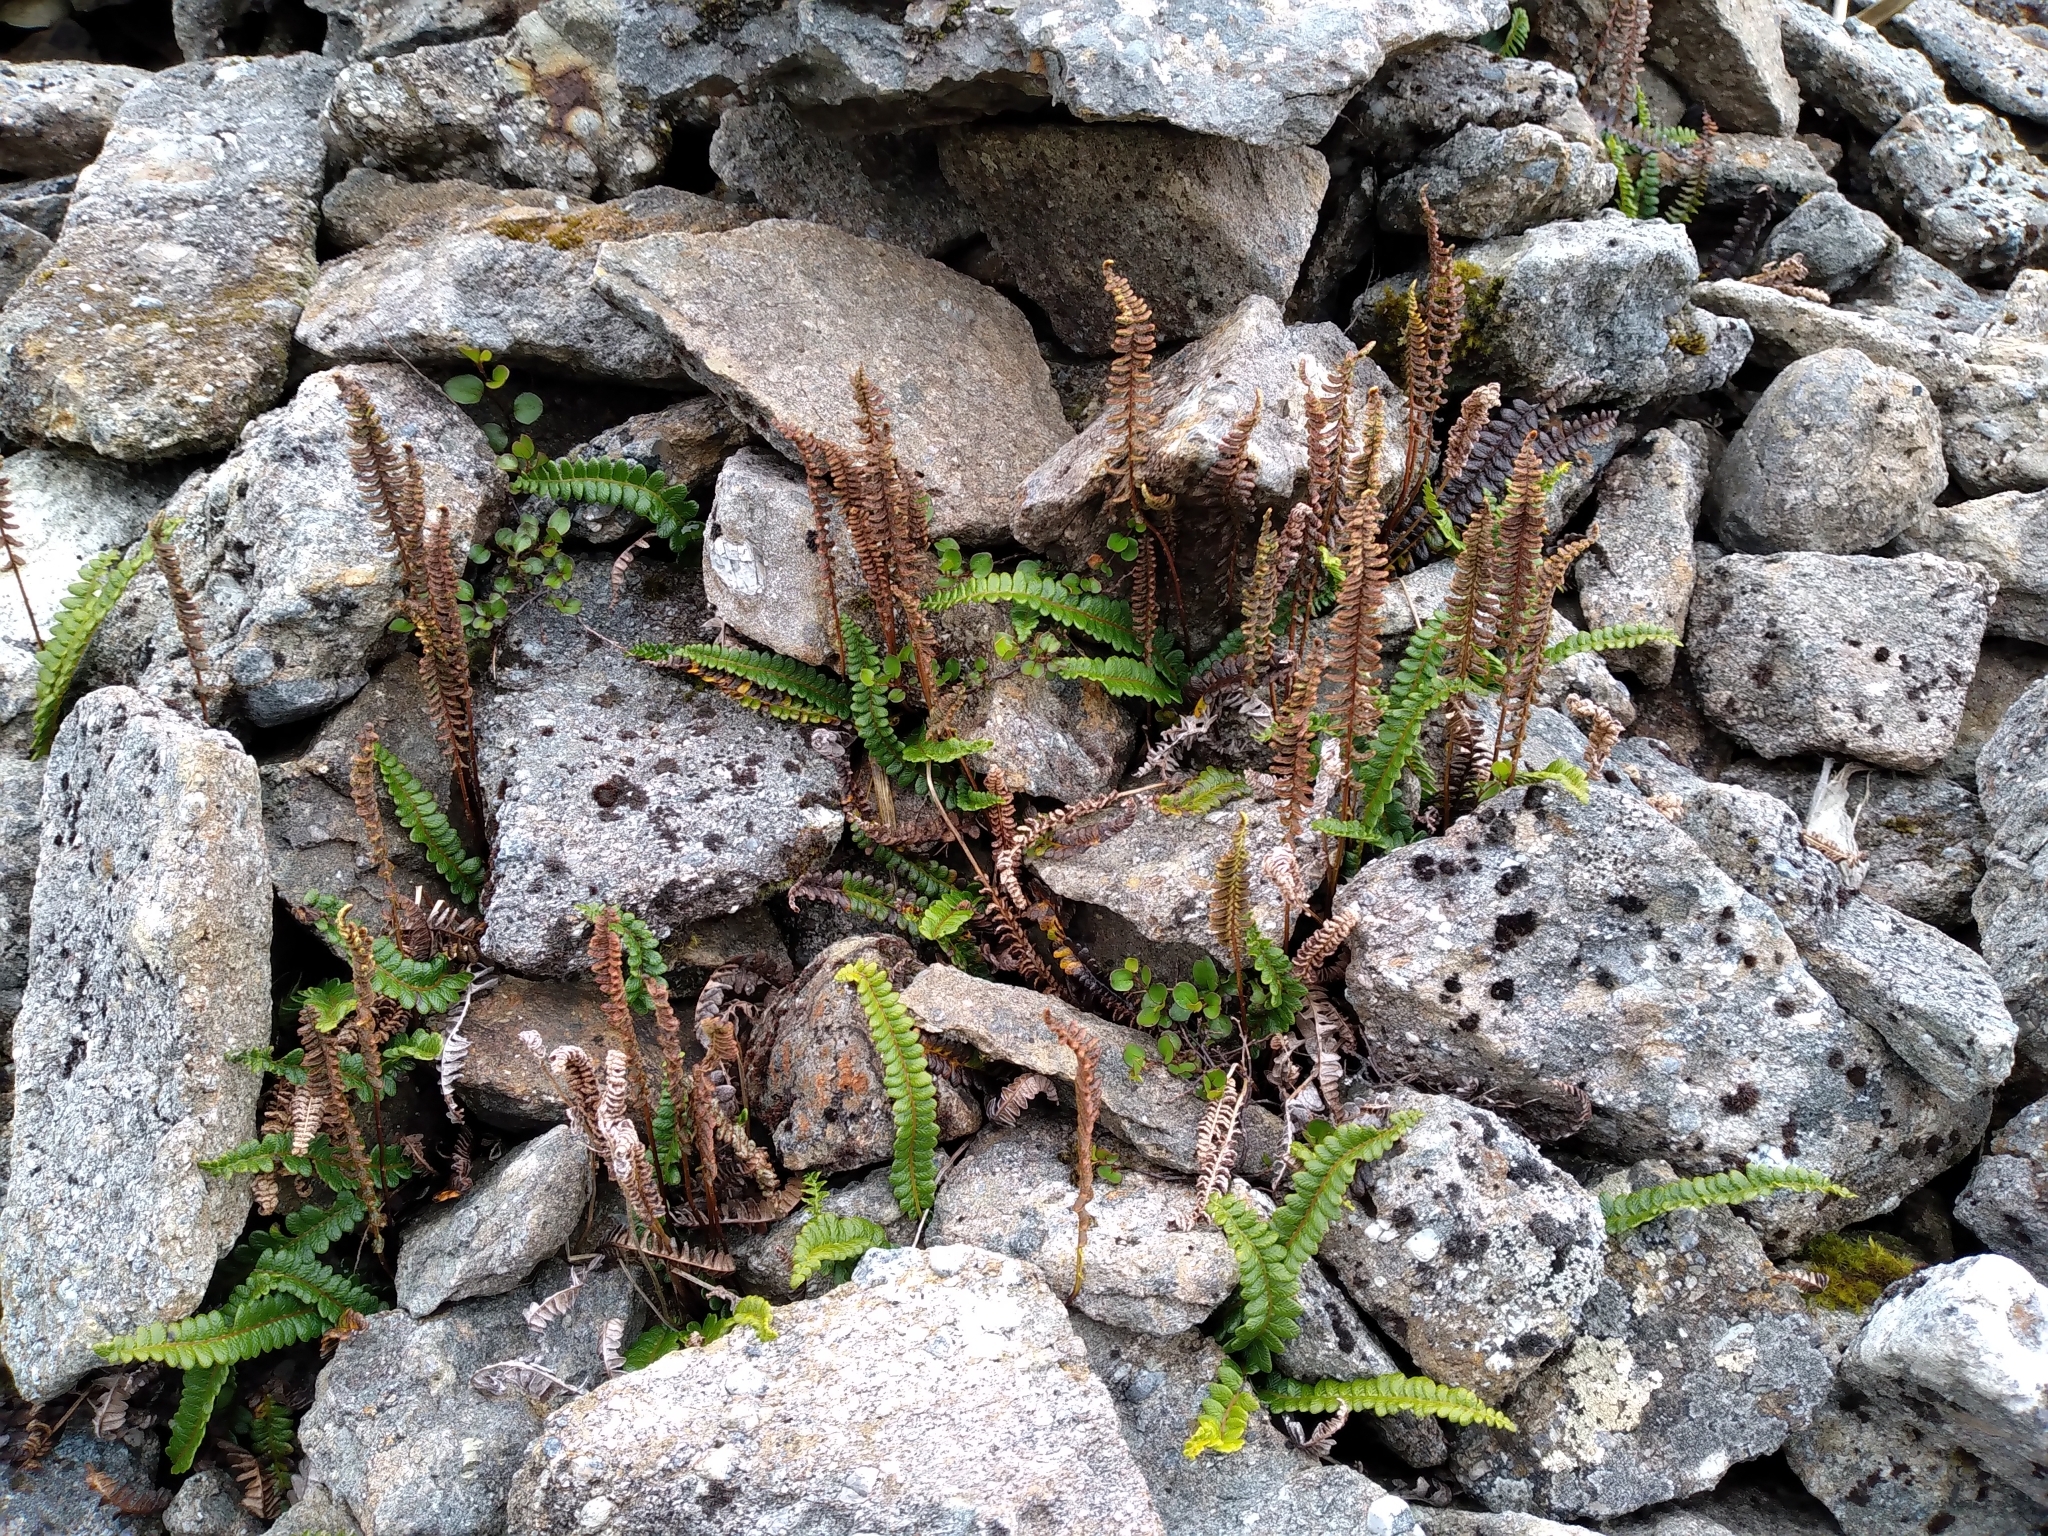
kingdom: Plantae
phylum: Tracheophyta
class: Polypodiopsida
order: Polypodiales
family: Blechnaceae
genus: Austroblechnum
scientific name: Austroblechnum penna-marina
